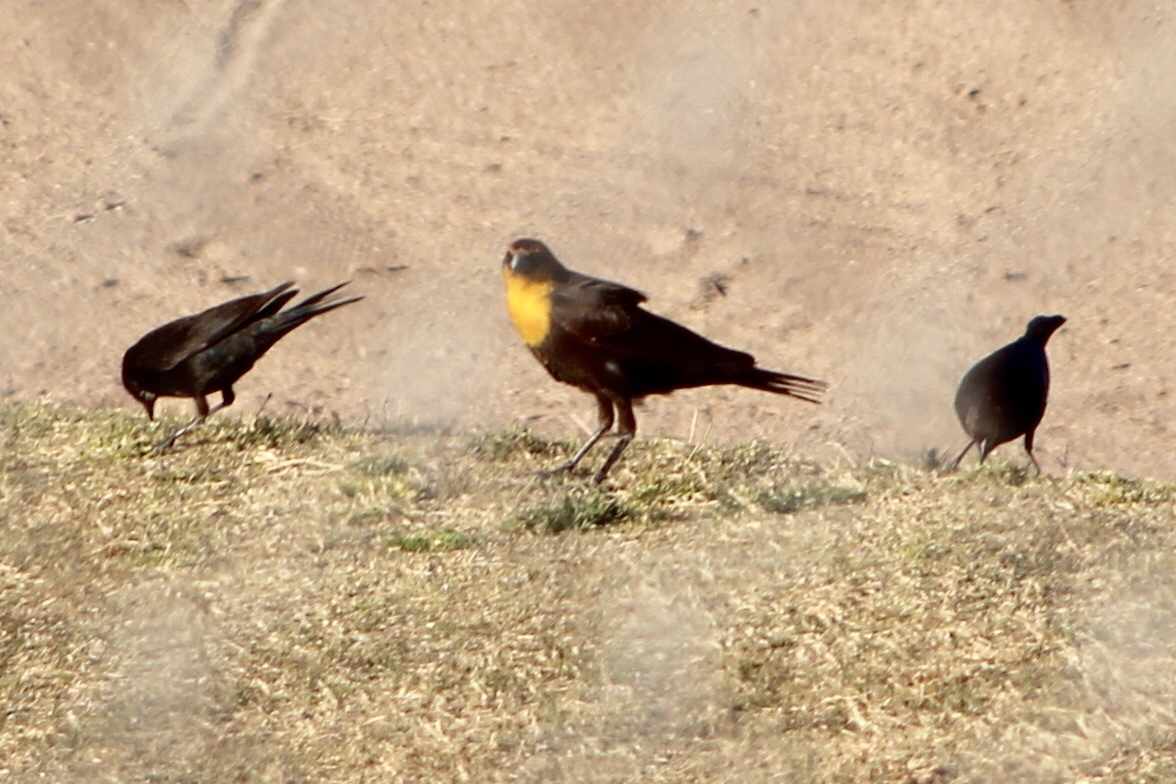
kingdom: Animalia
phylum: Chordata
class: Aves
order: Passeriformes
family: Icteridae
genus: Xanthocephalus
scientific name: Xanthocephalus xanthocephalus
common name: Yellow-headed blackbird
